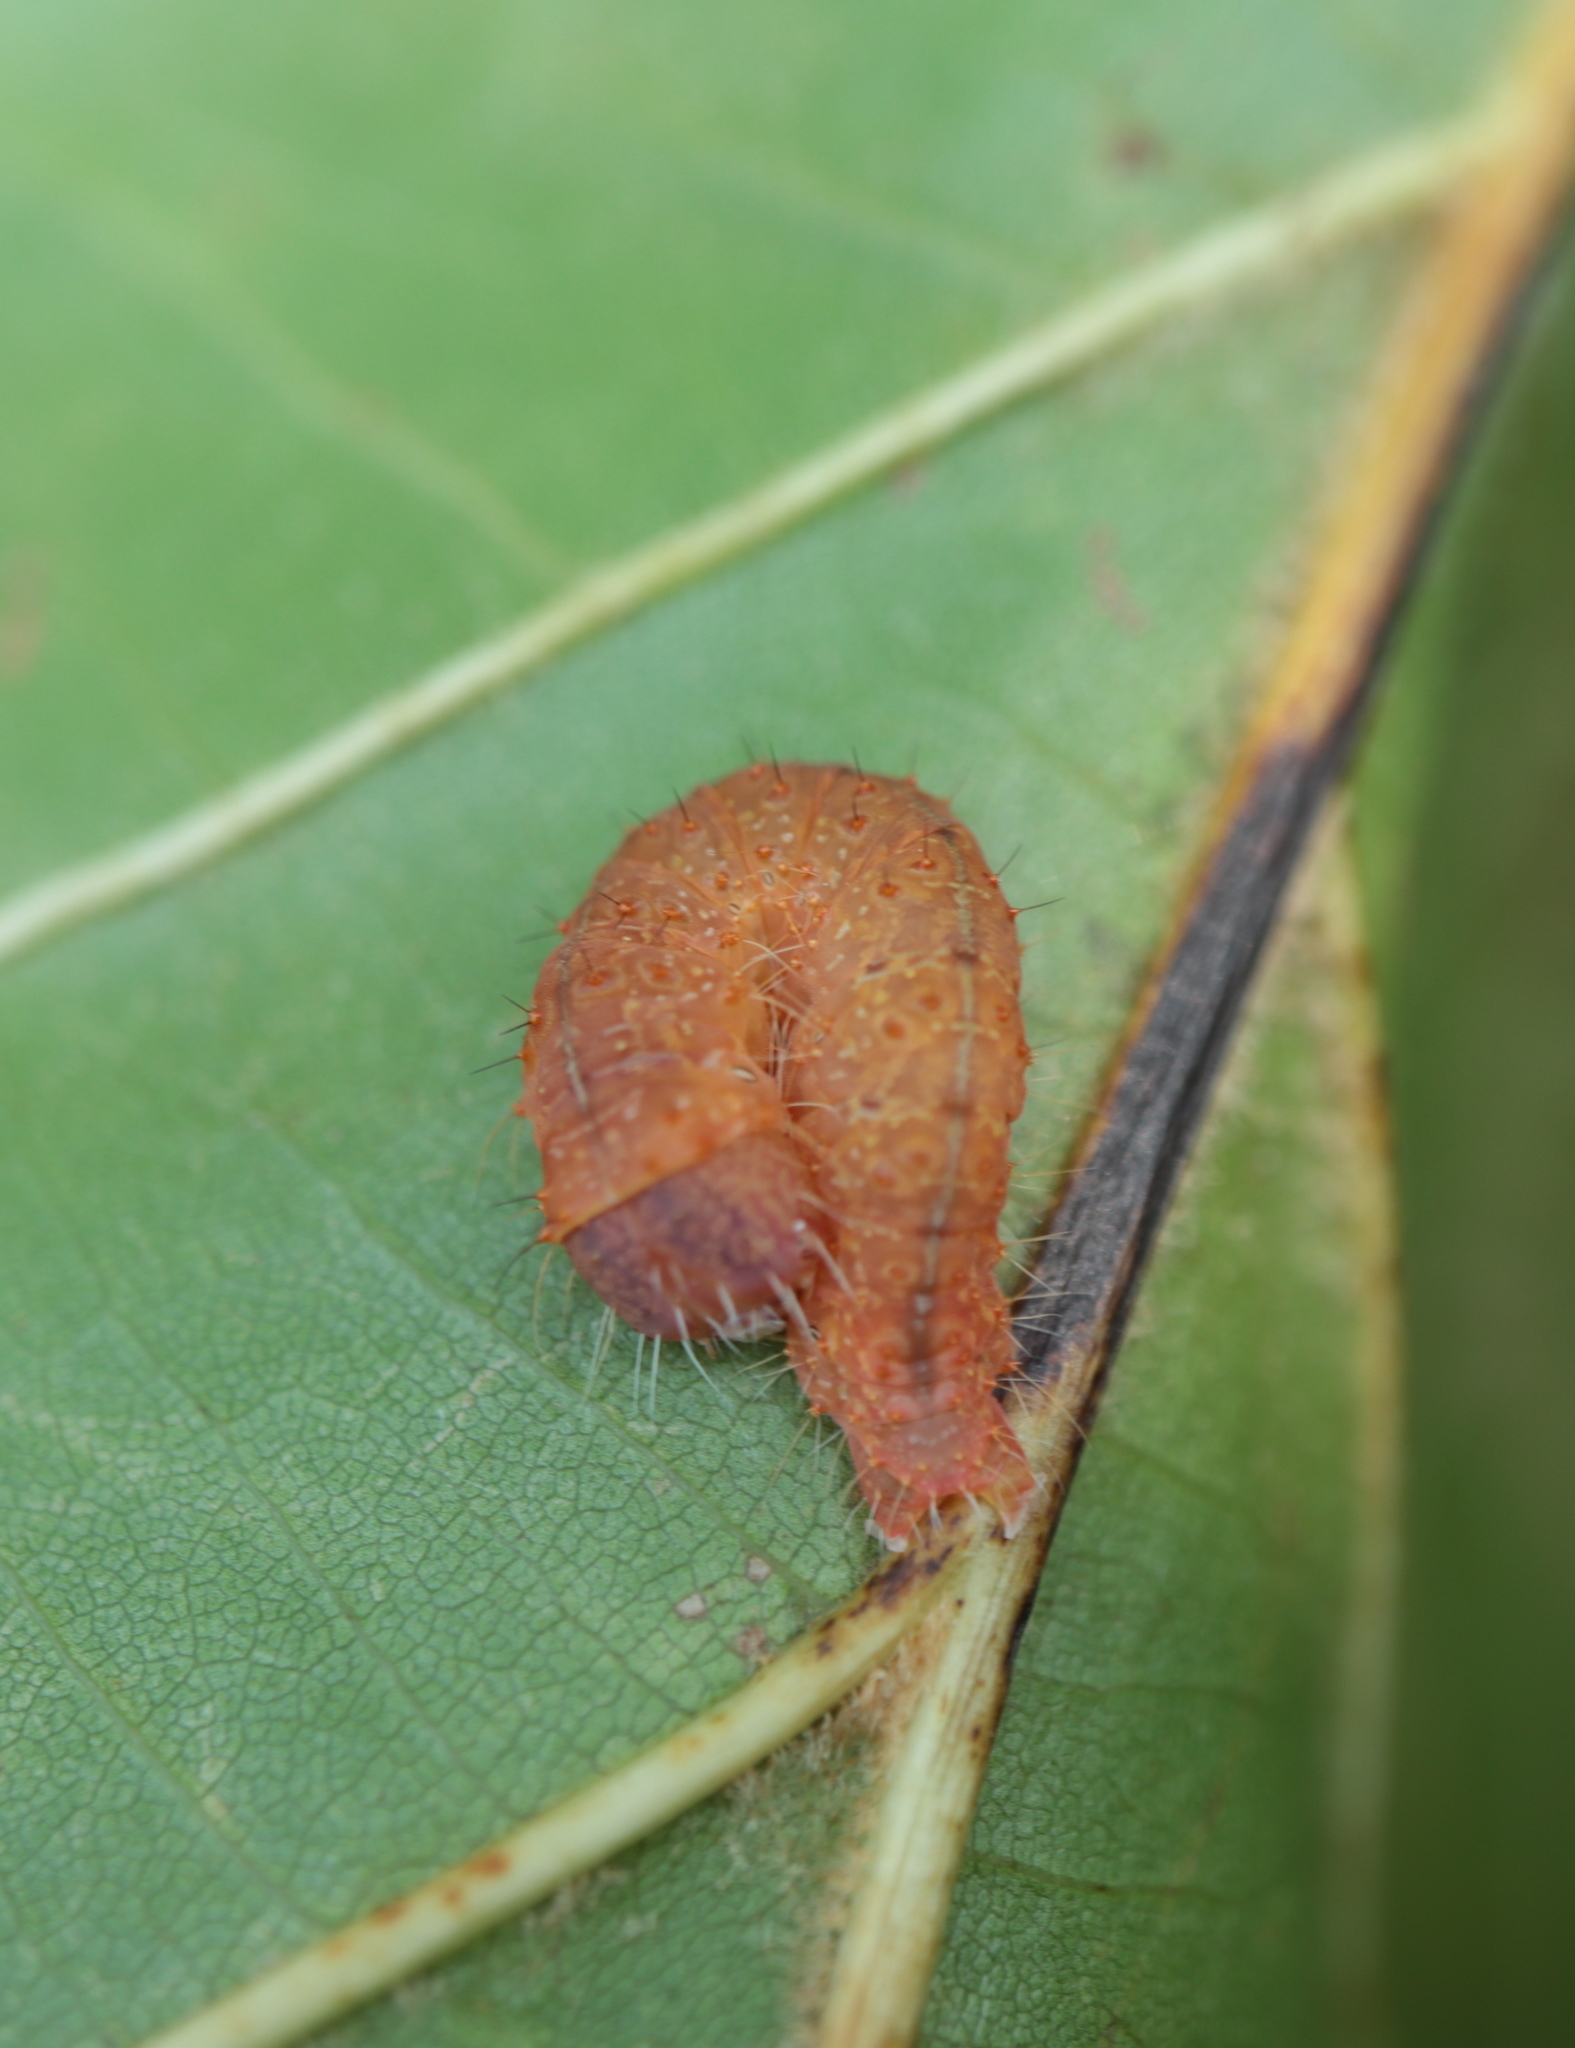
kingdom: Animalia
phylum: Arthropoda
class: Insecta
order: Lepidoptera
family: Noctuidae
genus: Acronicta
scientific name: Acronicta afflicta
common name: Afflicted dagger moth
